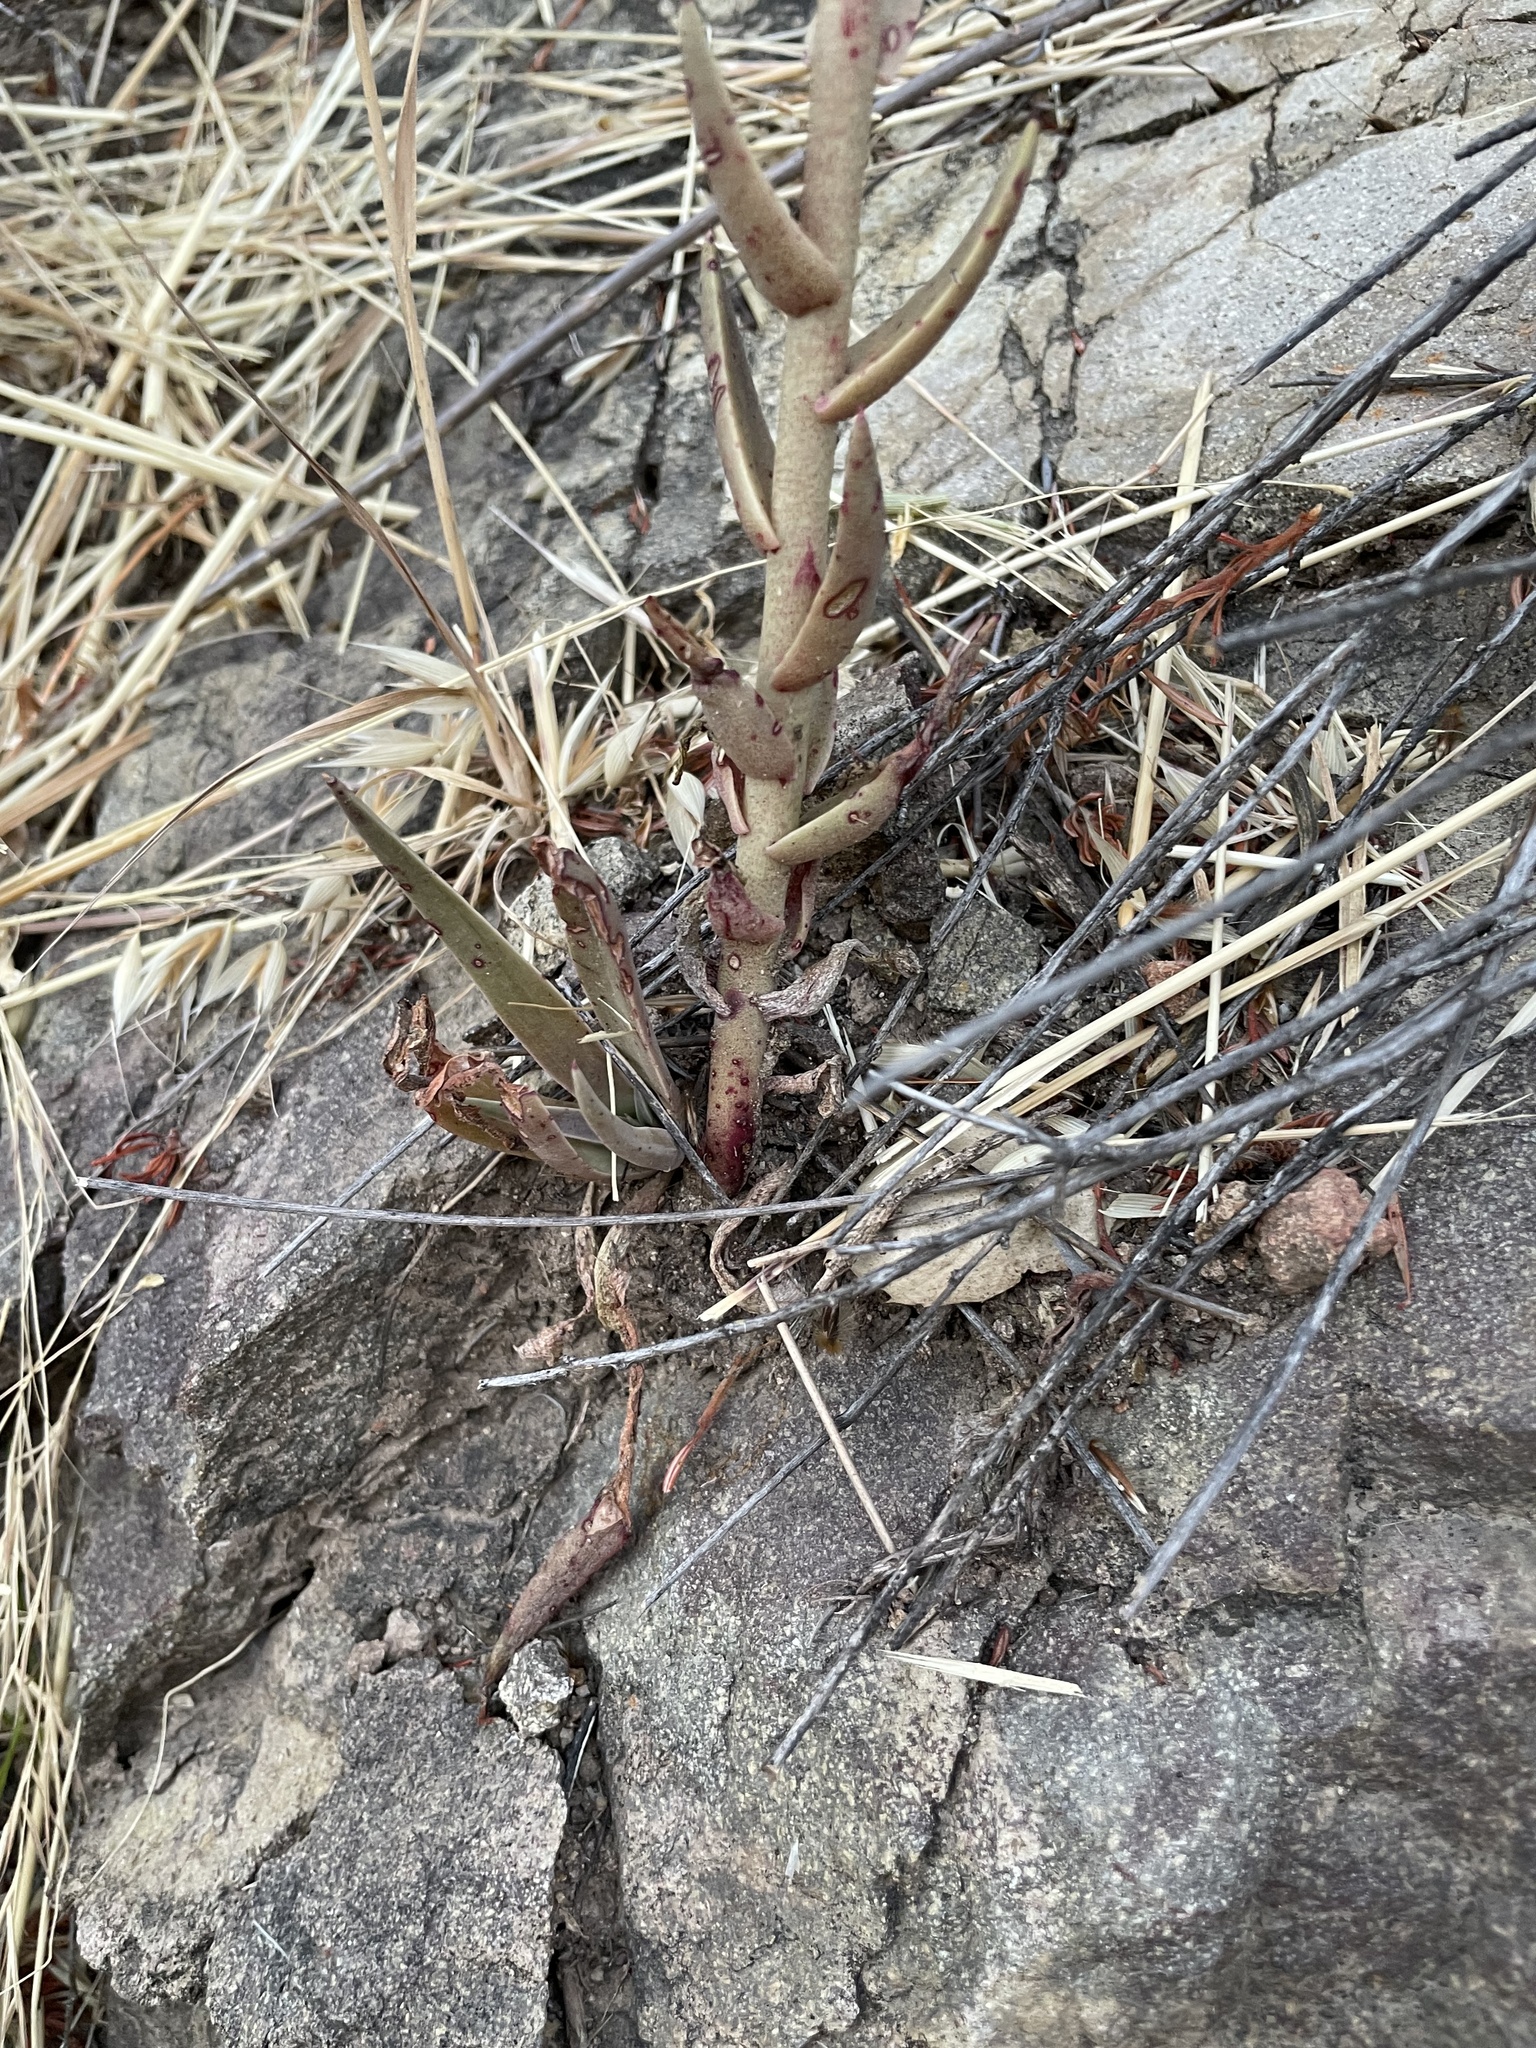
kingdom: Plantae
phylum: Tracheophyta
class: Magnoliopsida
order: Saxifragales
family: Crassulaceae
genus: Dudleya
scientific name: Dudleya lanceolata
